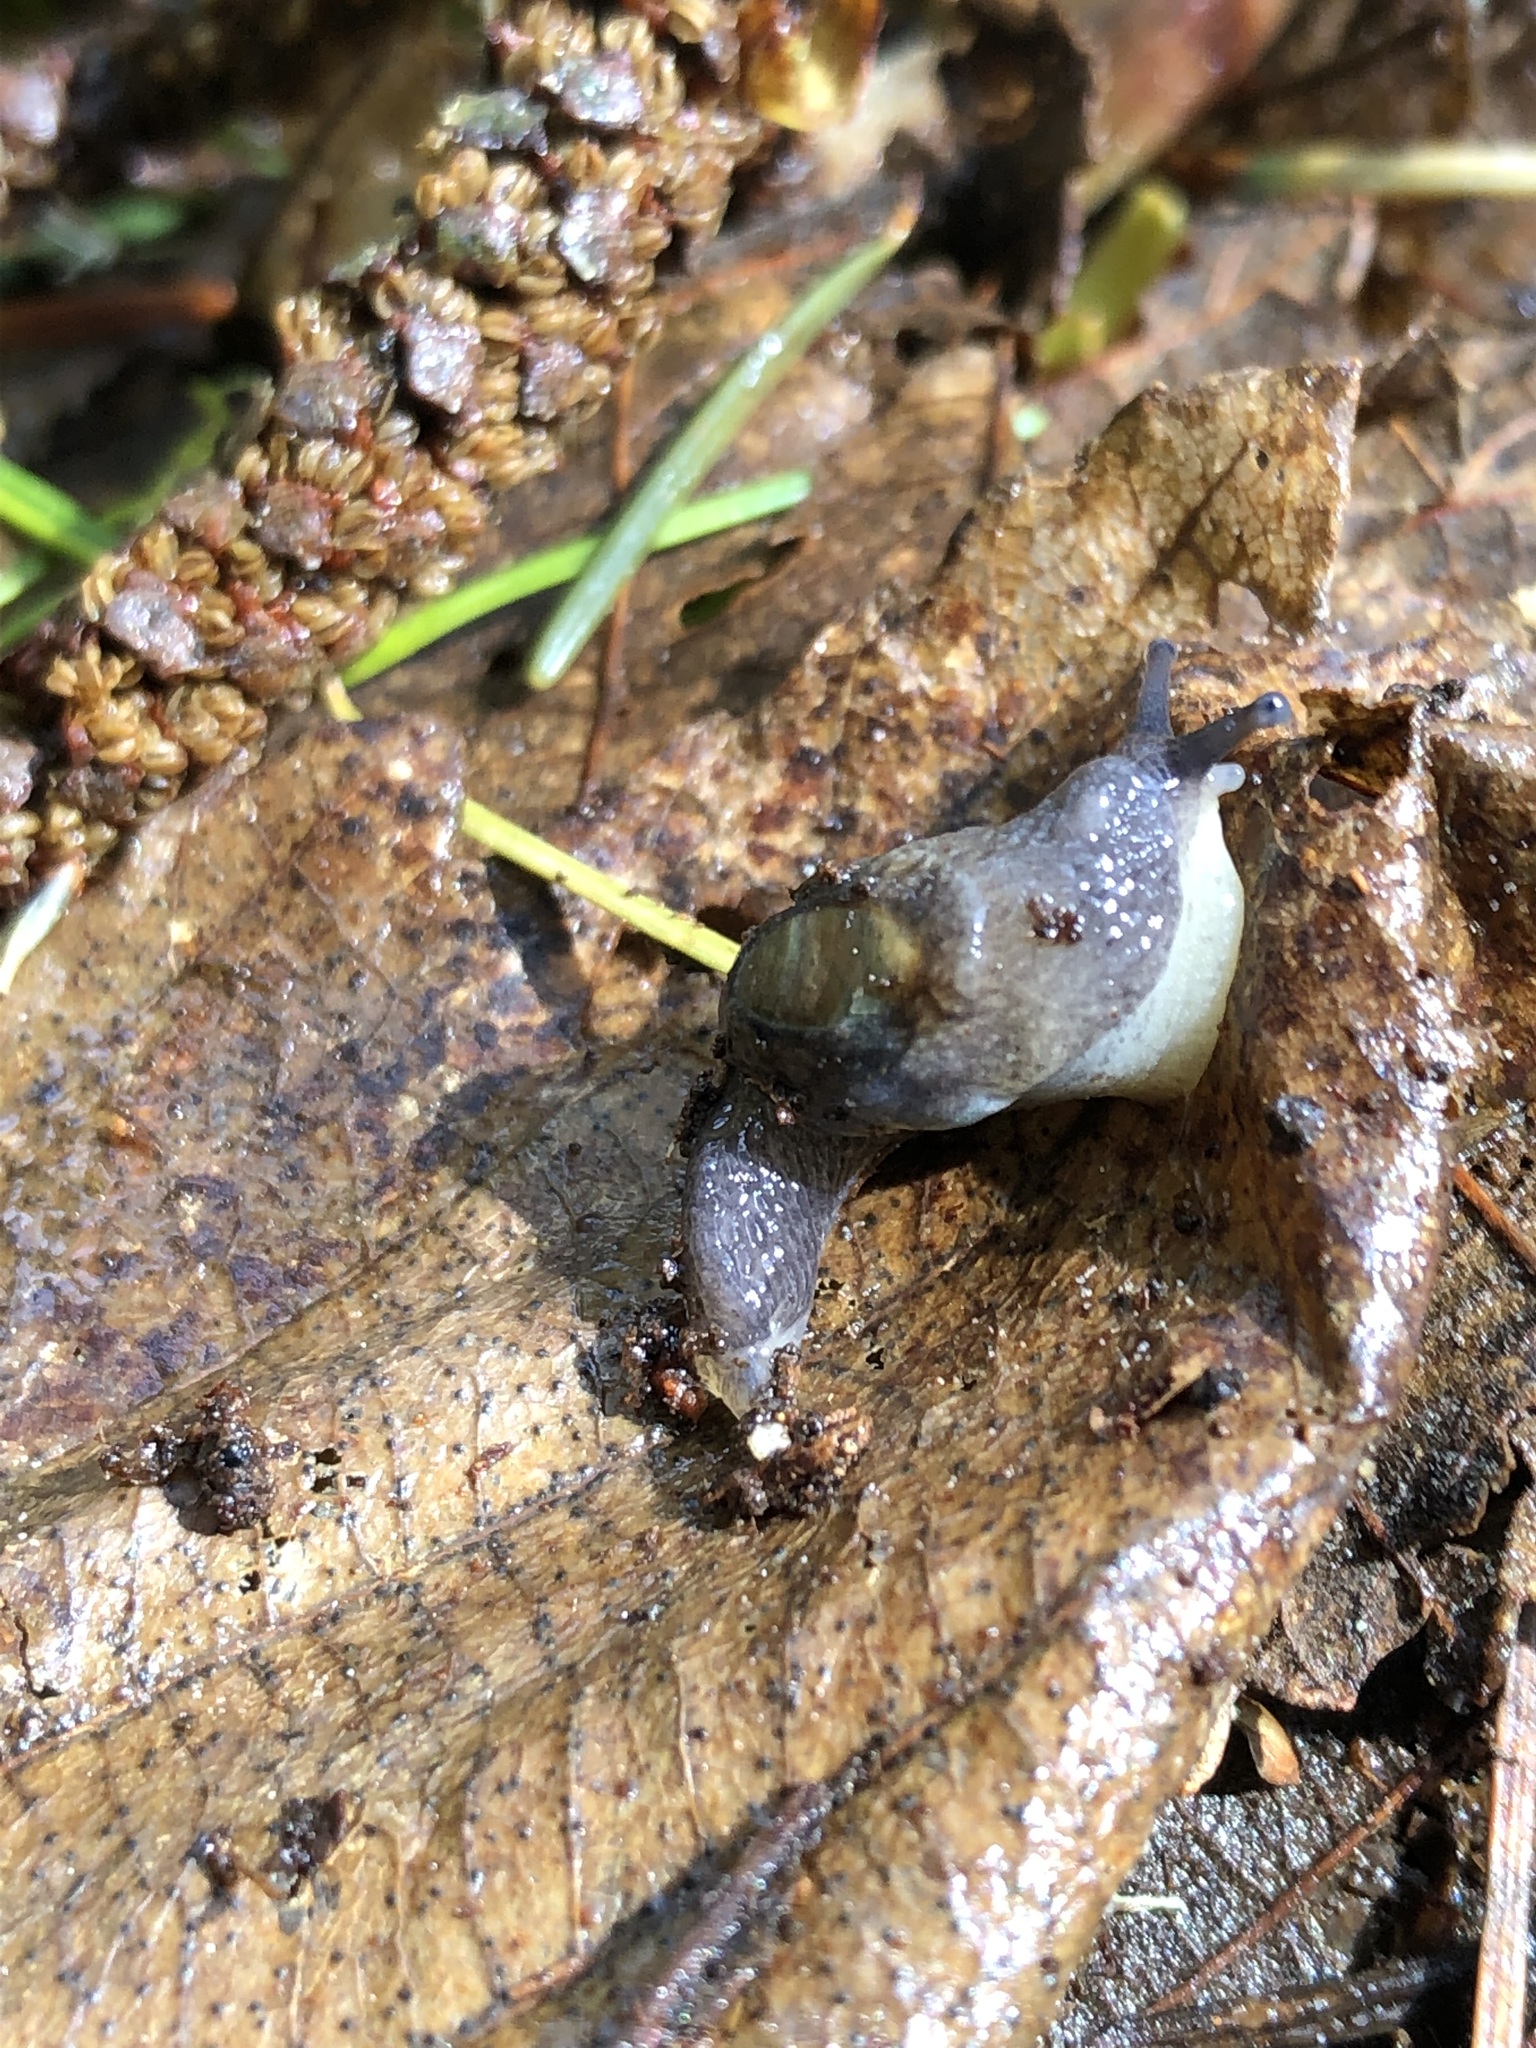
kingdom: Animalia
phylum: Mollusca
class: Gastropoda
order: Stylommatophora
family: Binneyidae
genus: Hemphillia
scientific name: Hemphillia dromedarius
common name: Dromedary jumping slug
